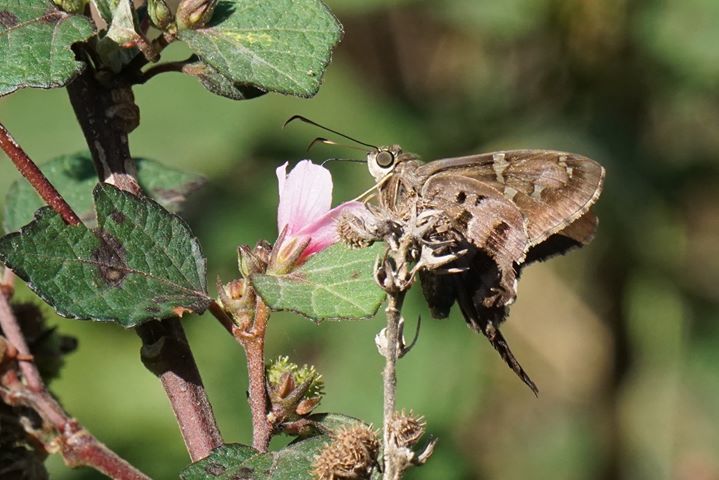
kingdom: Animalia
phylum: Arthropoda
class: Insecta
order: Lepidoptera
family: Hesperiidae
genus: Urbanus
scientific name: Urbanus proteus
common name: Long-tailed skipper
